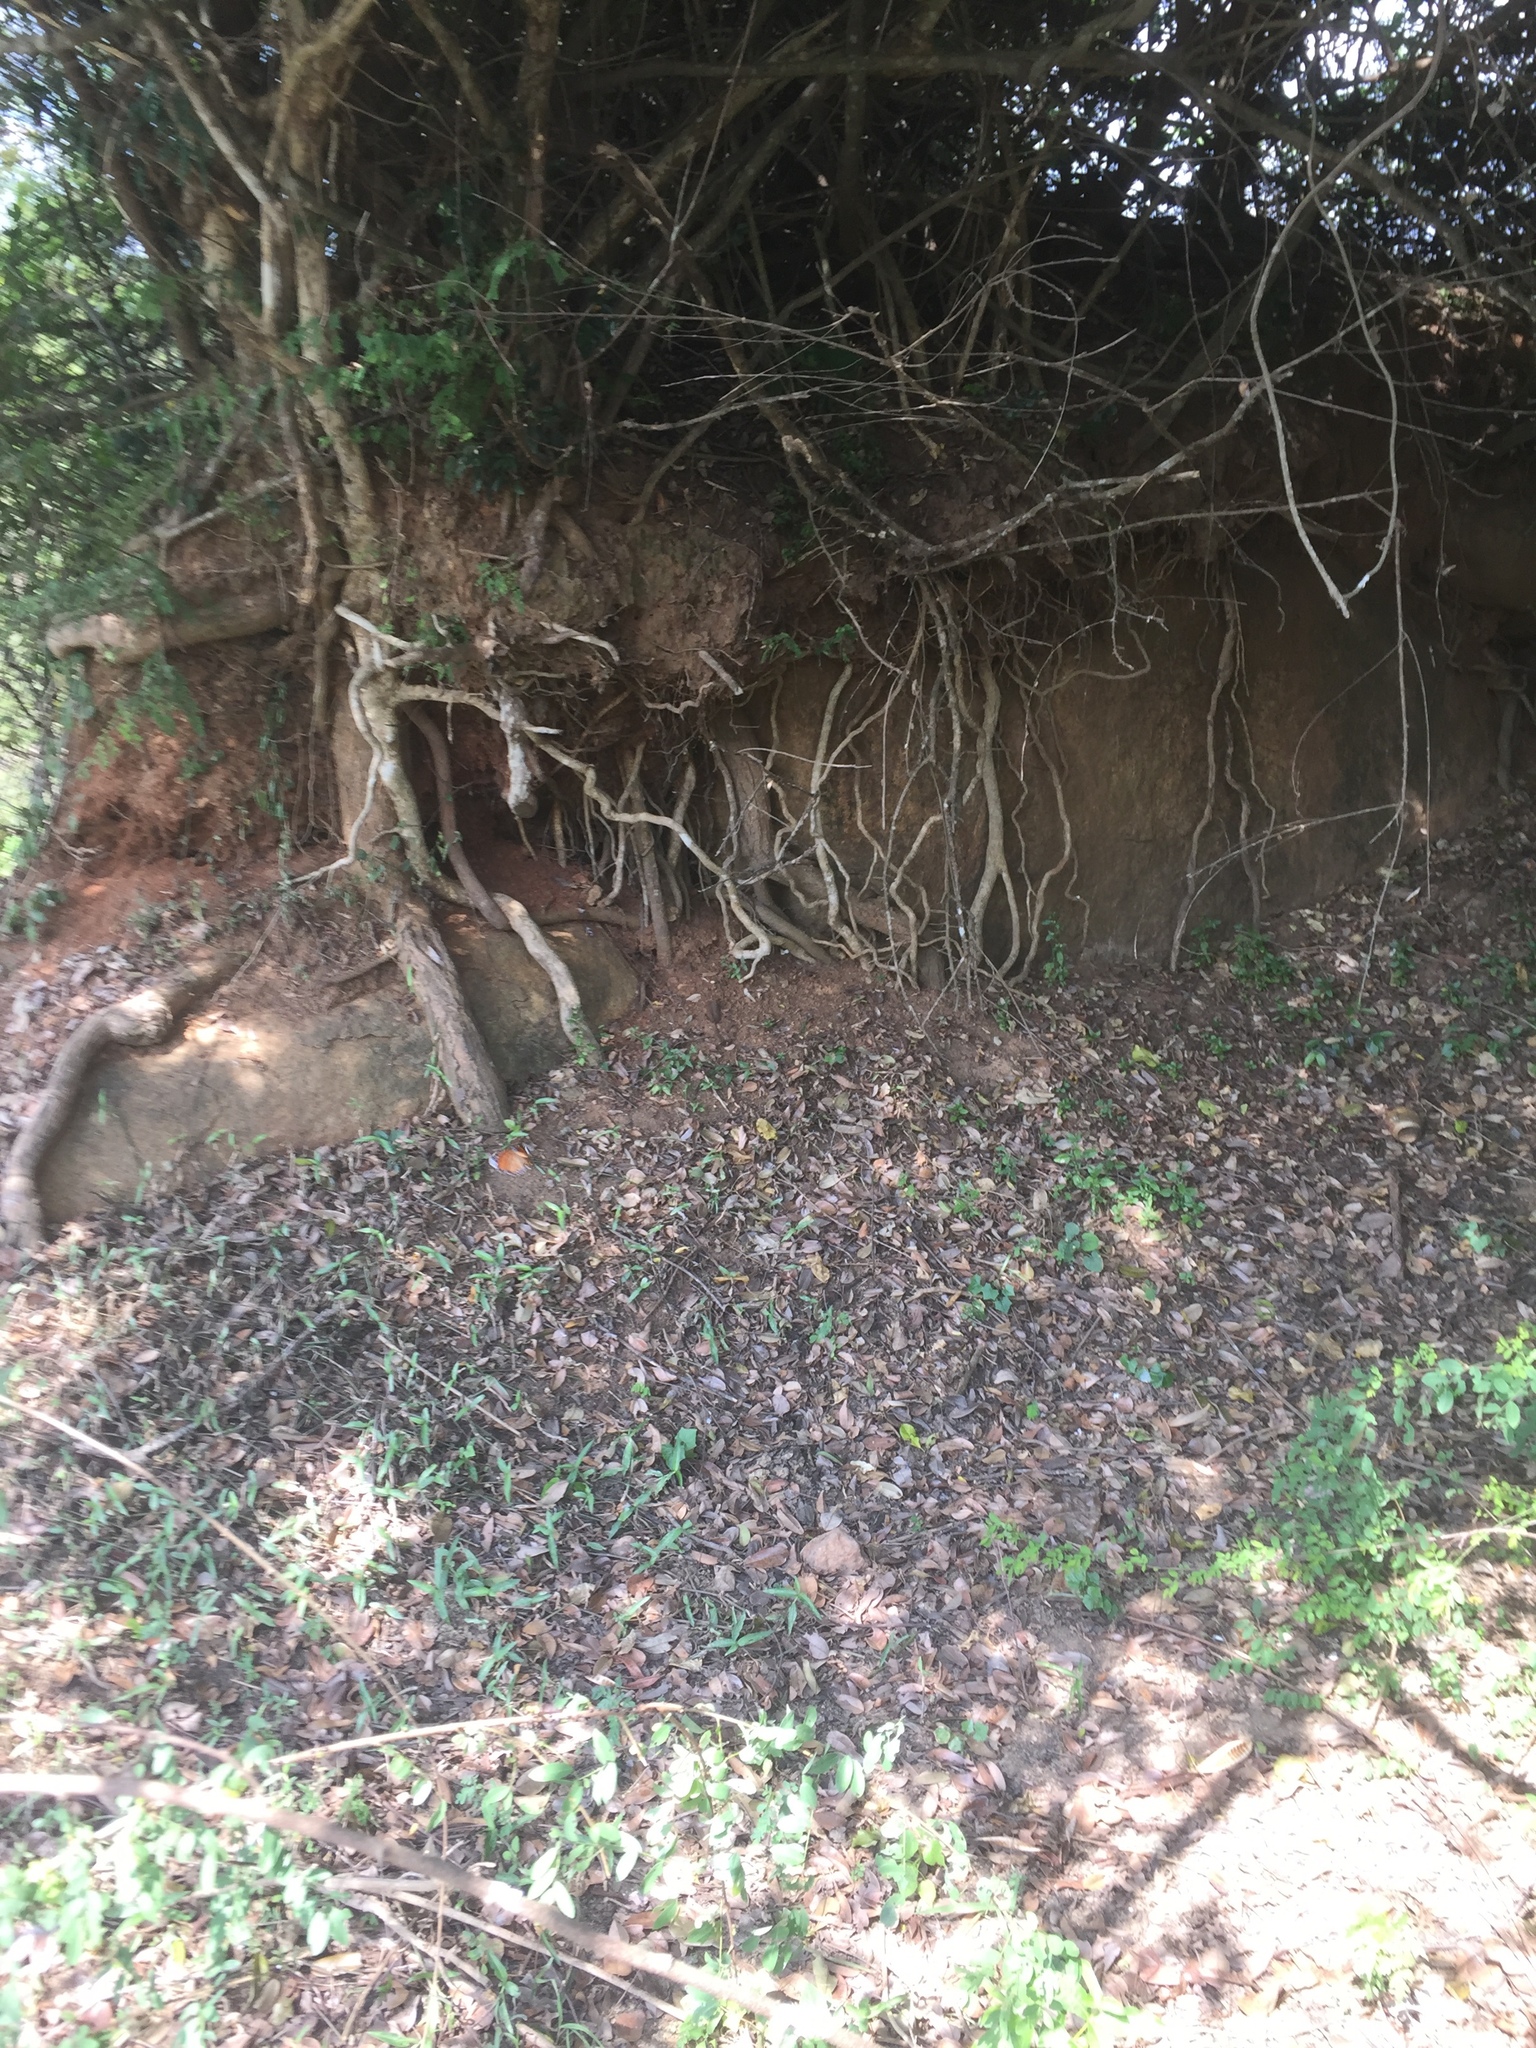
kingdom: Animalia
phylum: Arthropoda
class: Insecta
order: Lepidoptera
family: Nymphalidae
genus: Danaus
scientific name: Danaus genutia
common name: Common tiger butterfly
